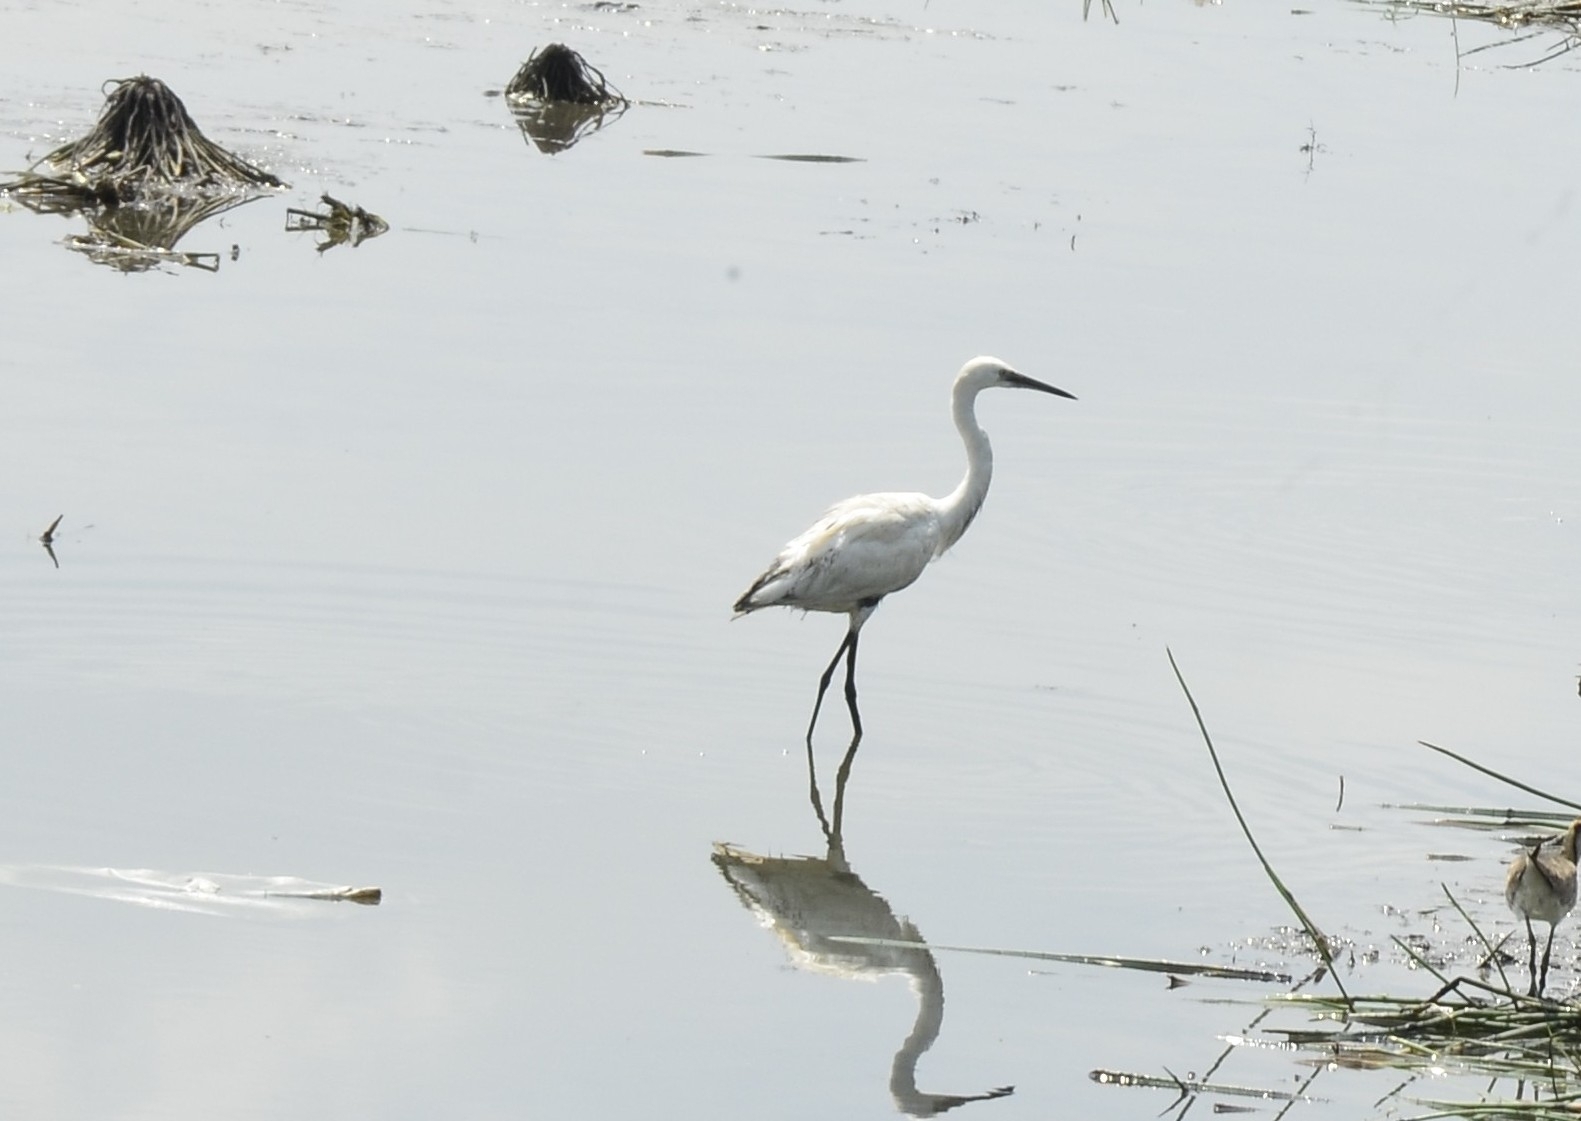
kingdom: Animalia
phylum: Chordata
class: Aves
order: Pelecaniformes
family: Ardeidae
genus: Egretta
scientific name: Egretta garzetta
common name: Little egret
